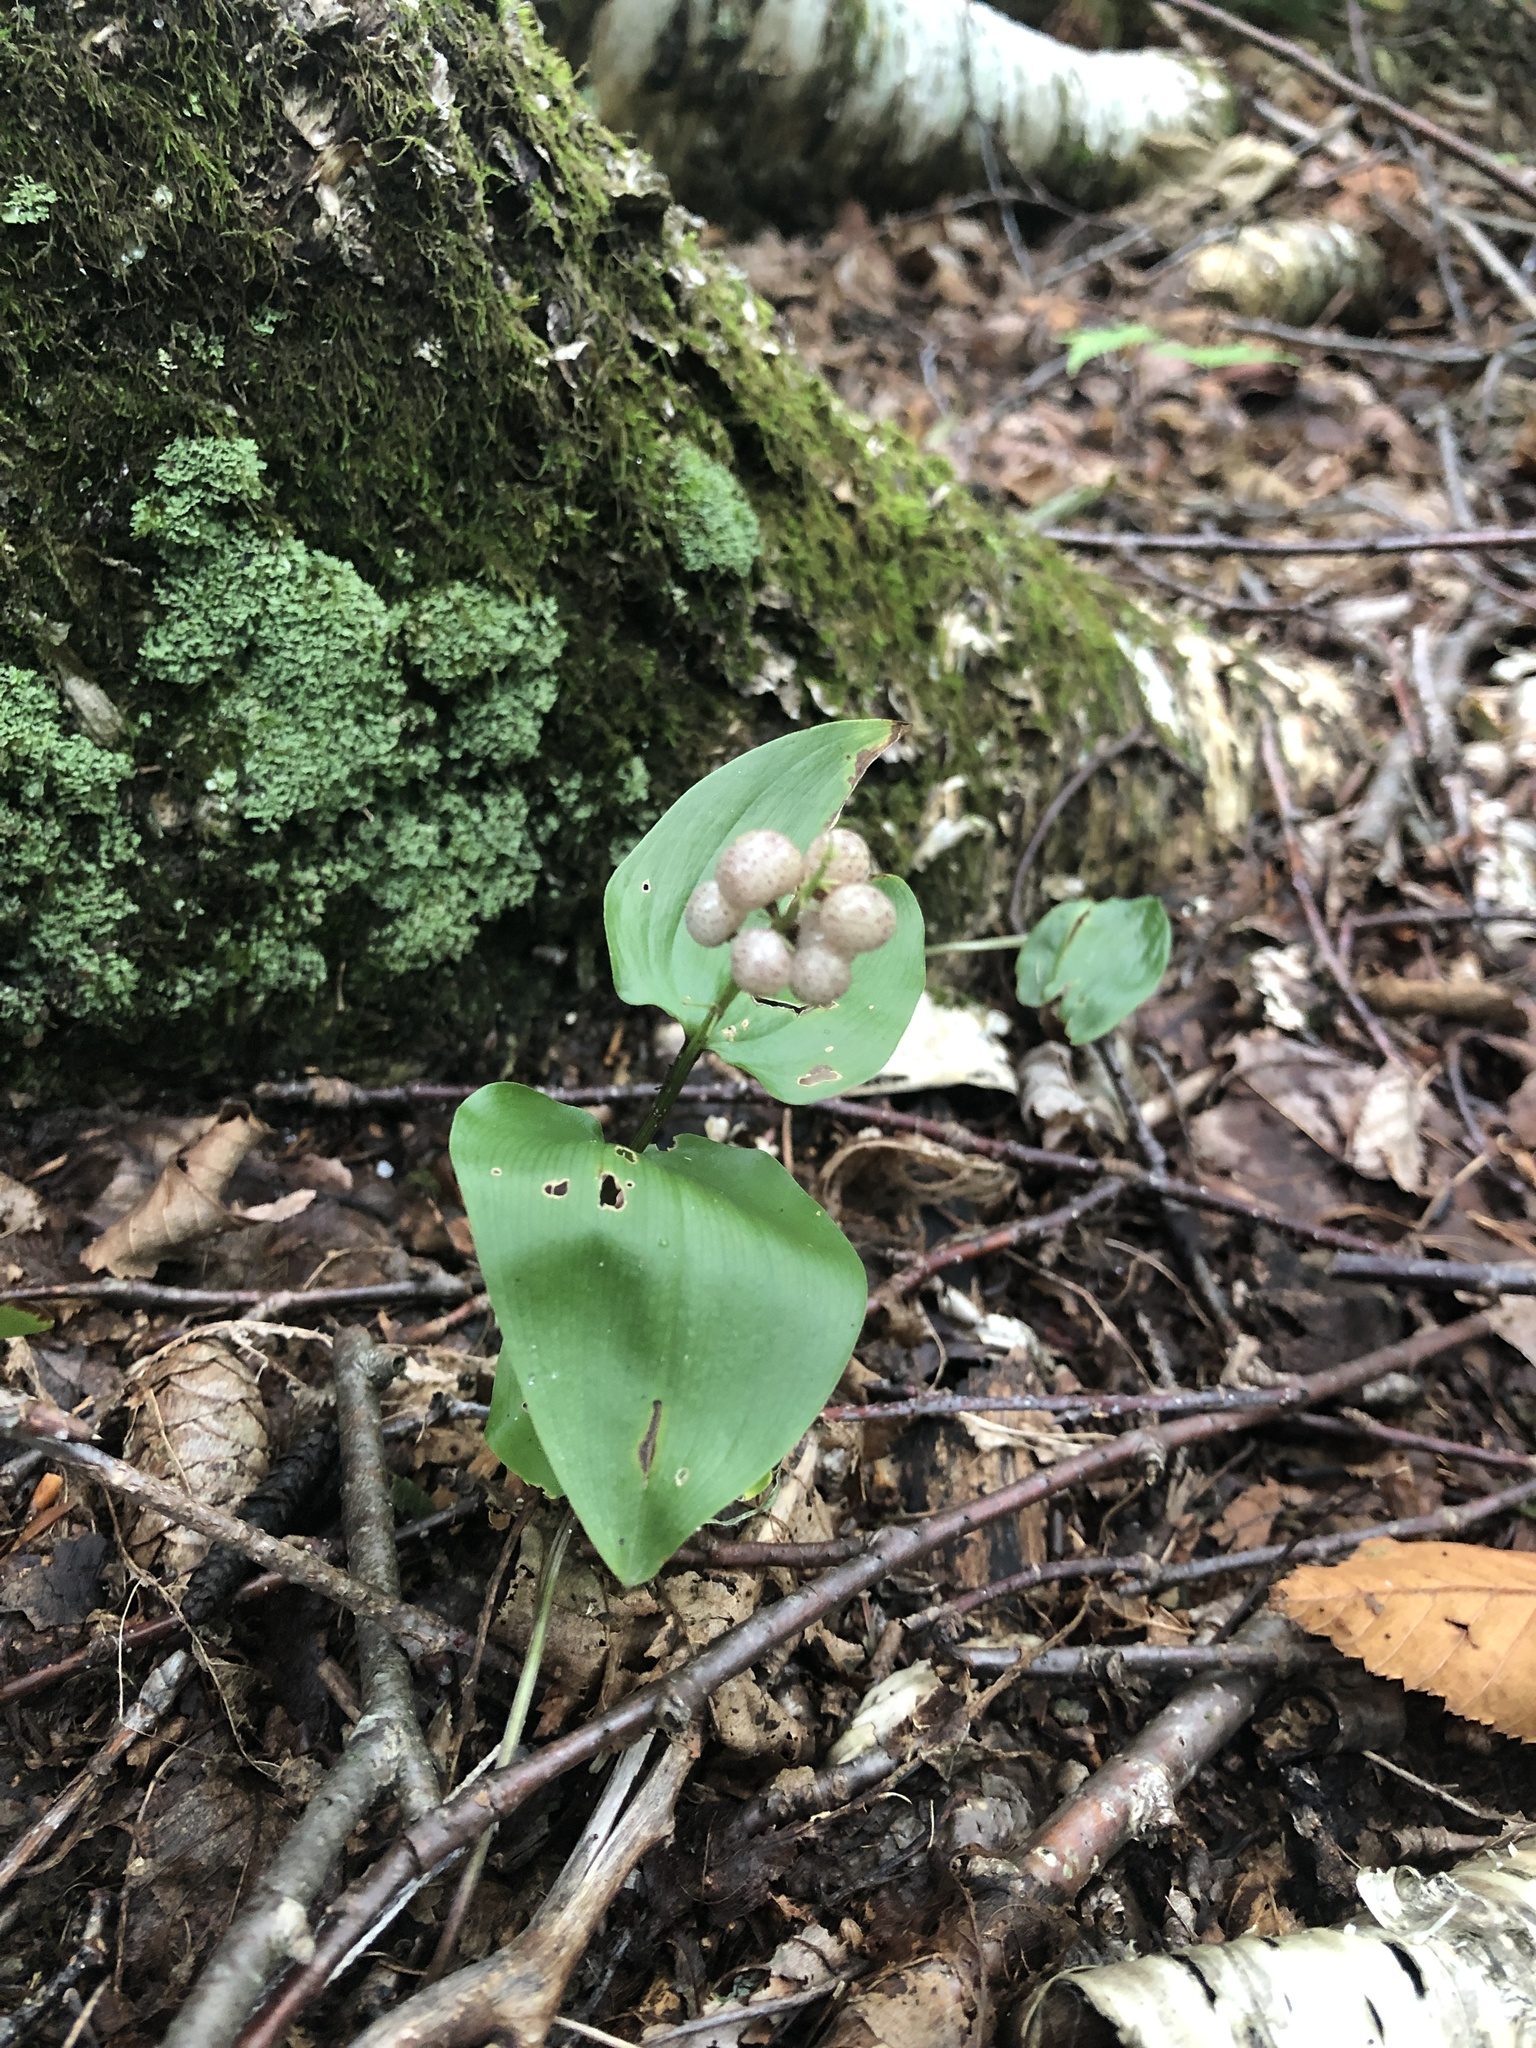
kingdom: Plantae
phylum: Tracheophyta
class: Liliopsida
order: Asparagales
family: Asparagaceae
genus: Maianthemum
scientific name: Maianthemum canadense
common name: False lily-of-the-valley
